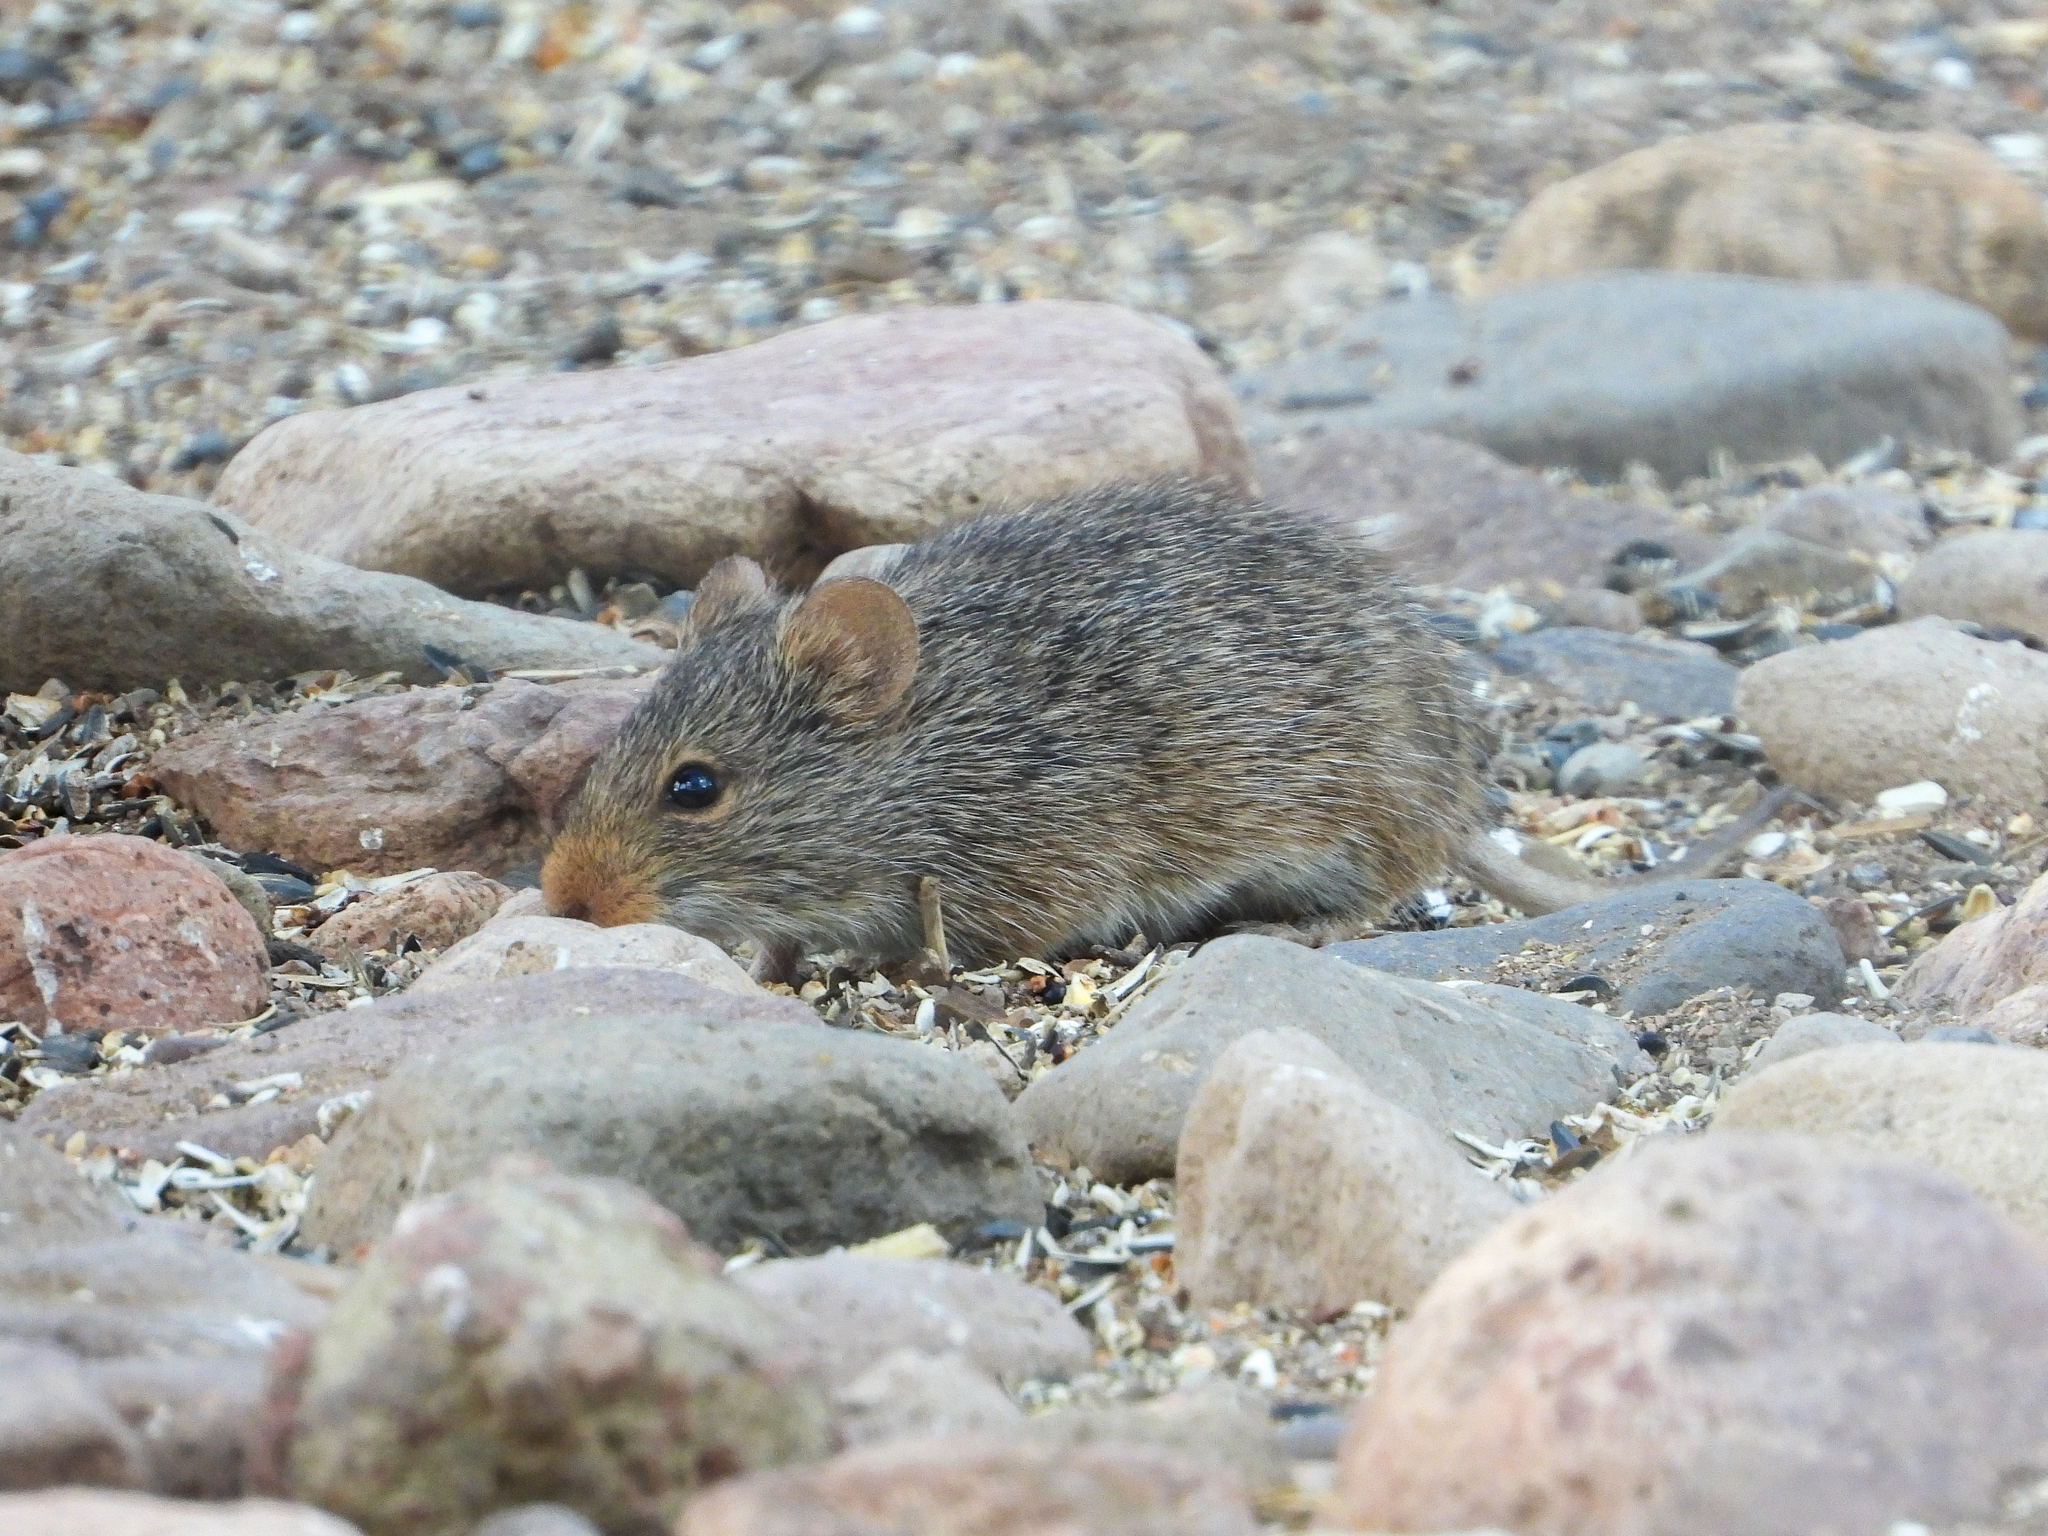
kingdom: Animalia
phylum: Chordata
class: Mammalia
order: Rodentia
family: Cricetidae
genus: Sigmodon
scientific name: Sigmodon ochrognathus
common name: Yellow-nosed cotton rat
